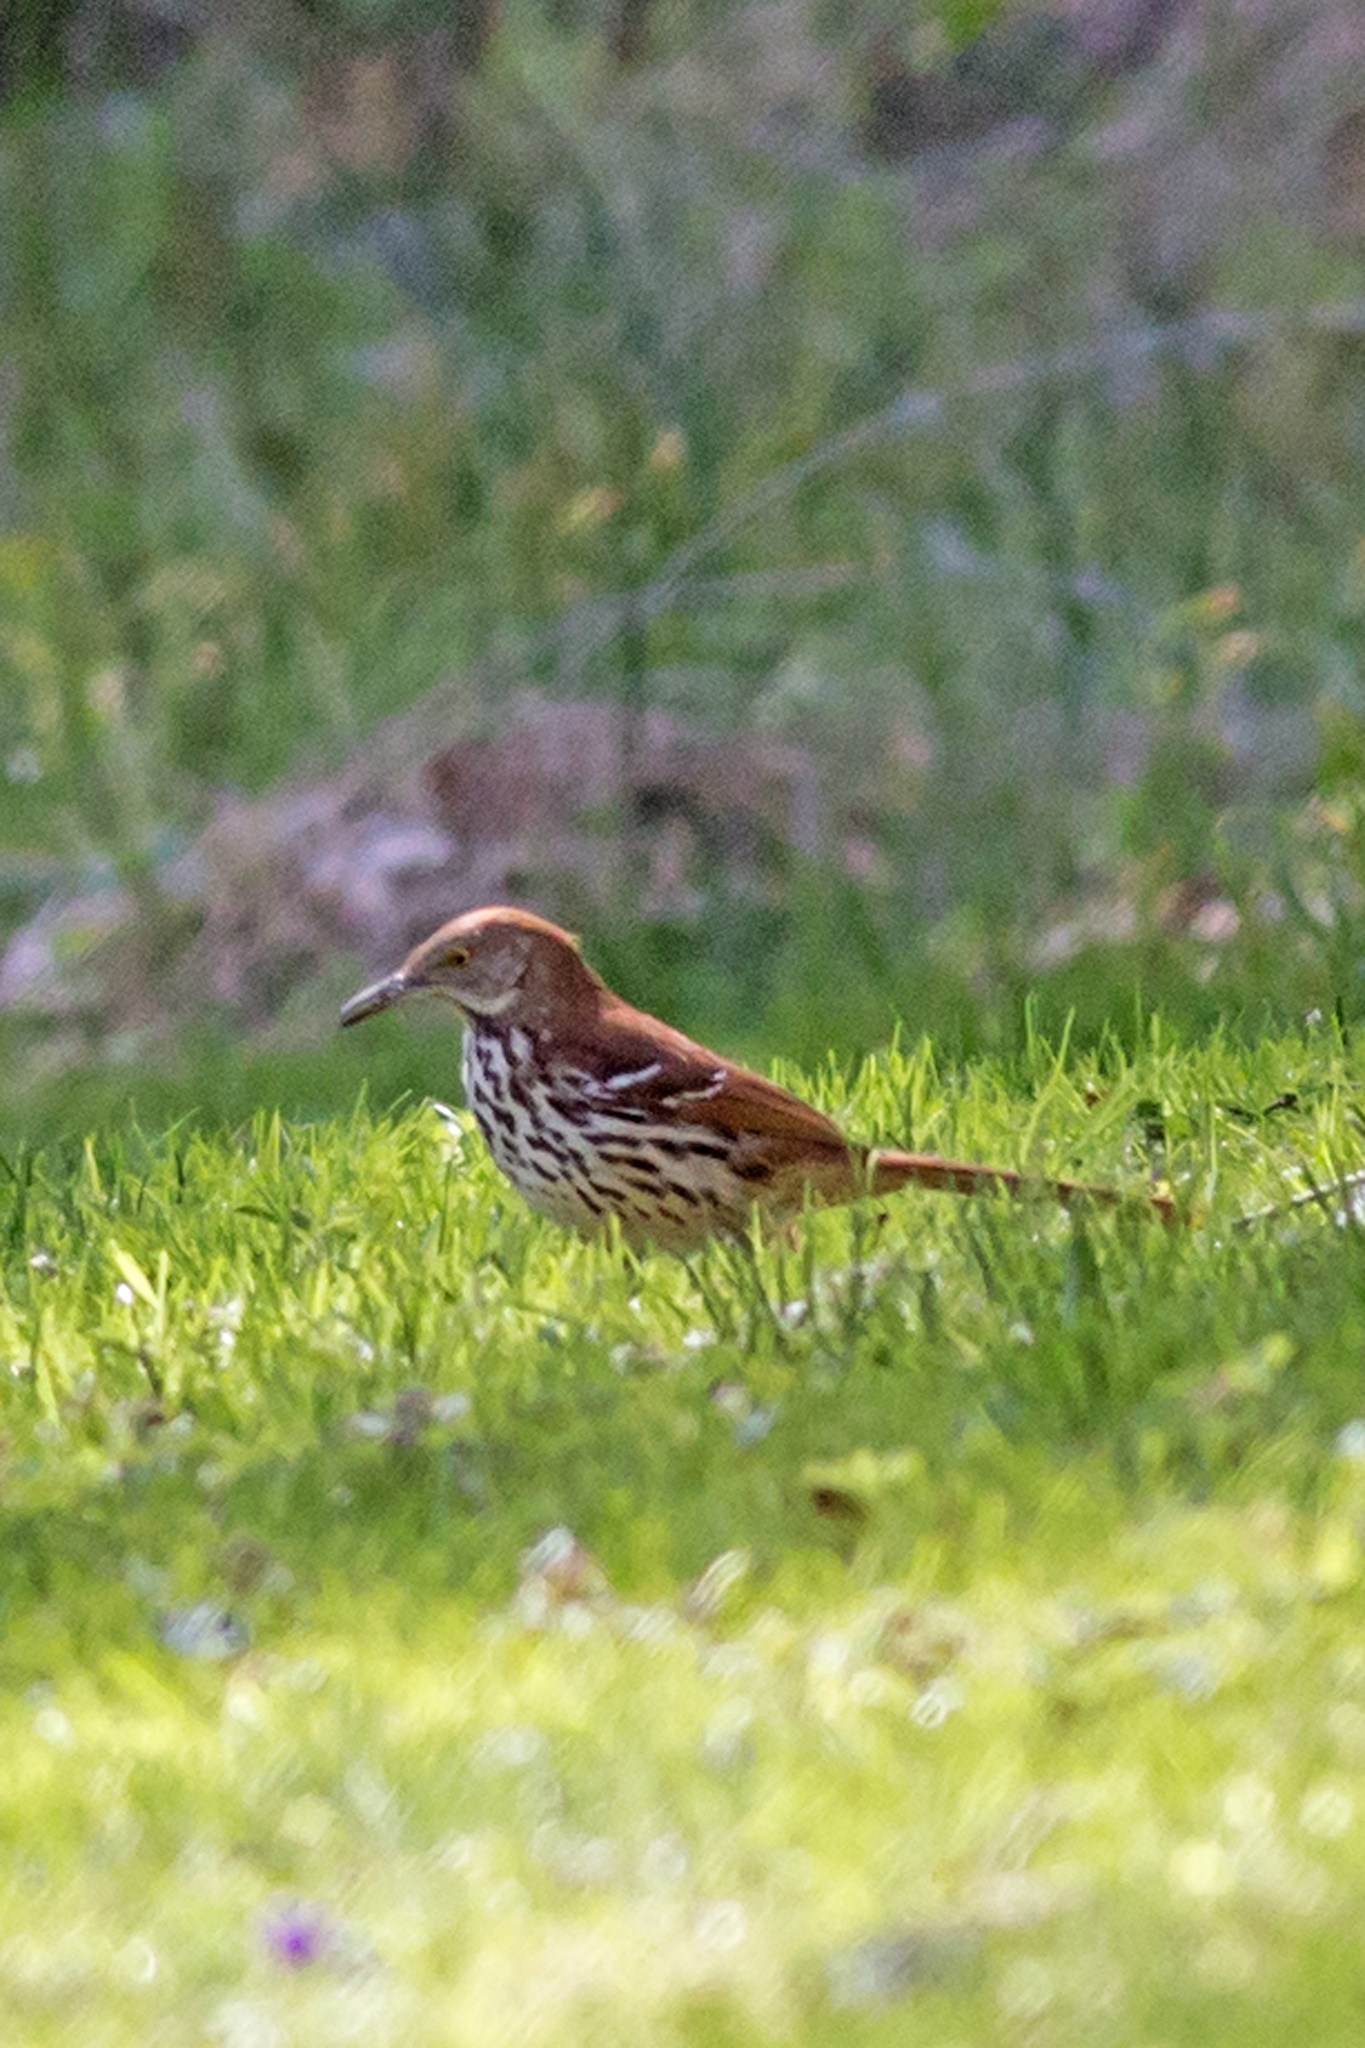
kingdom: Animalia
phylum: Chordata
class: Aves
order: Passeriformes
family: Mimidae
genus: Toxostoma
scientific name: Toxostoma rufum
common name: Brown thrasher
